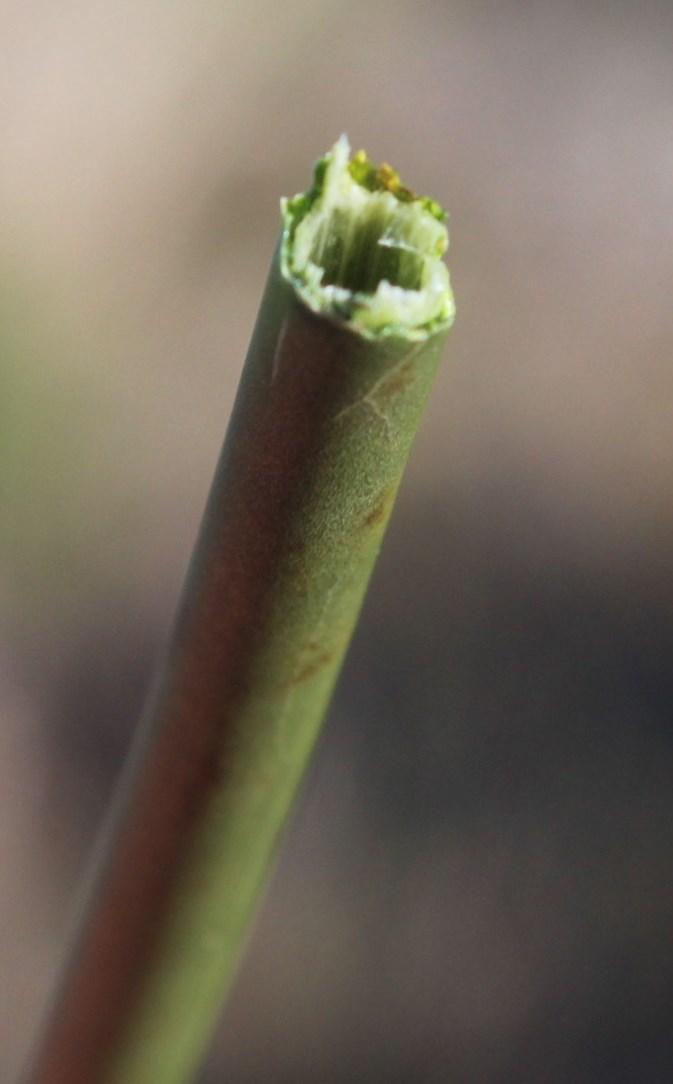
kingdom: Plantae
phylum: Tracheophyta
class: Liliopsida
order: Poales
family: Restionaceae
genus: Elegia
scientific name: Elegia fistulosa
